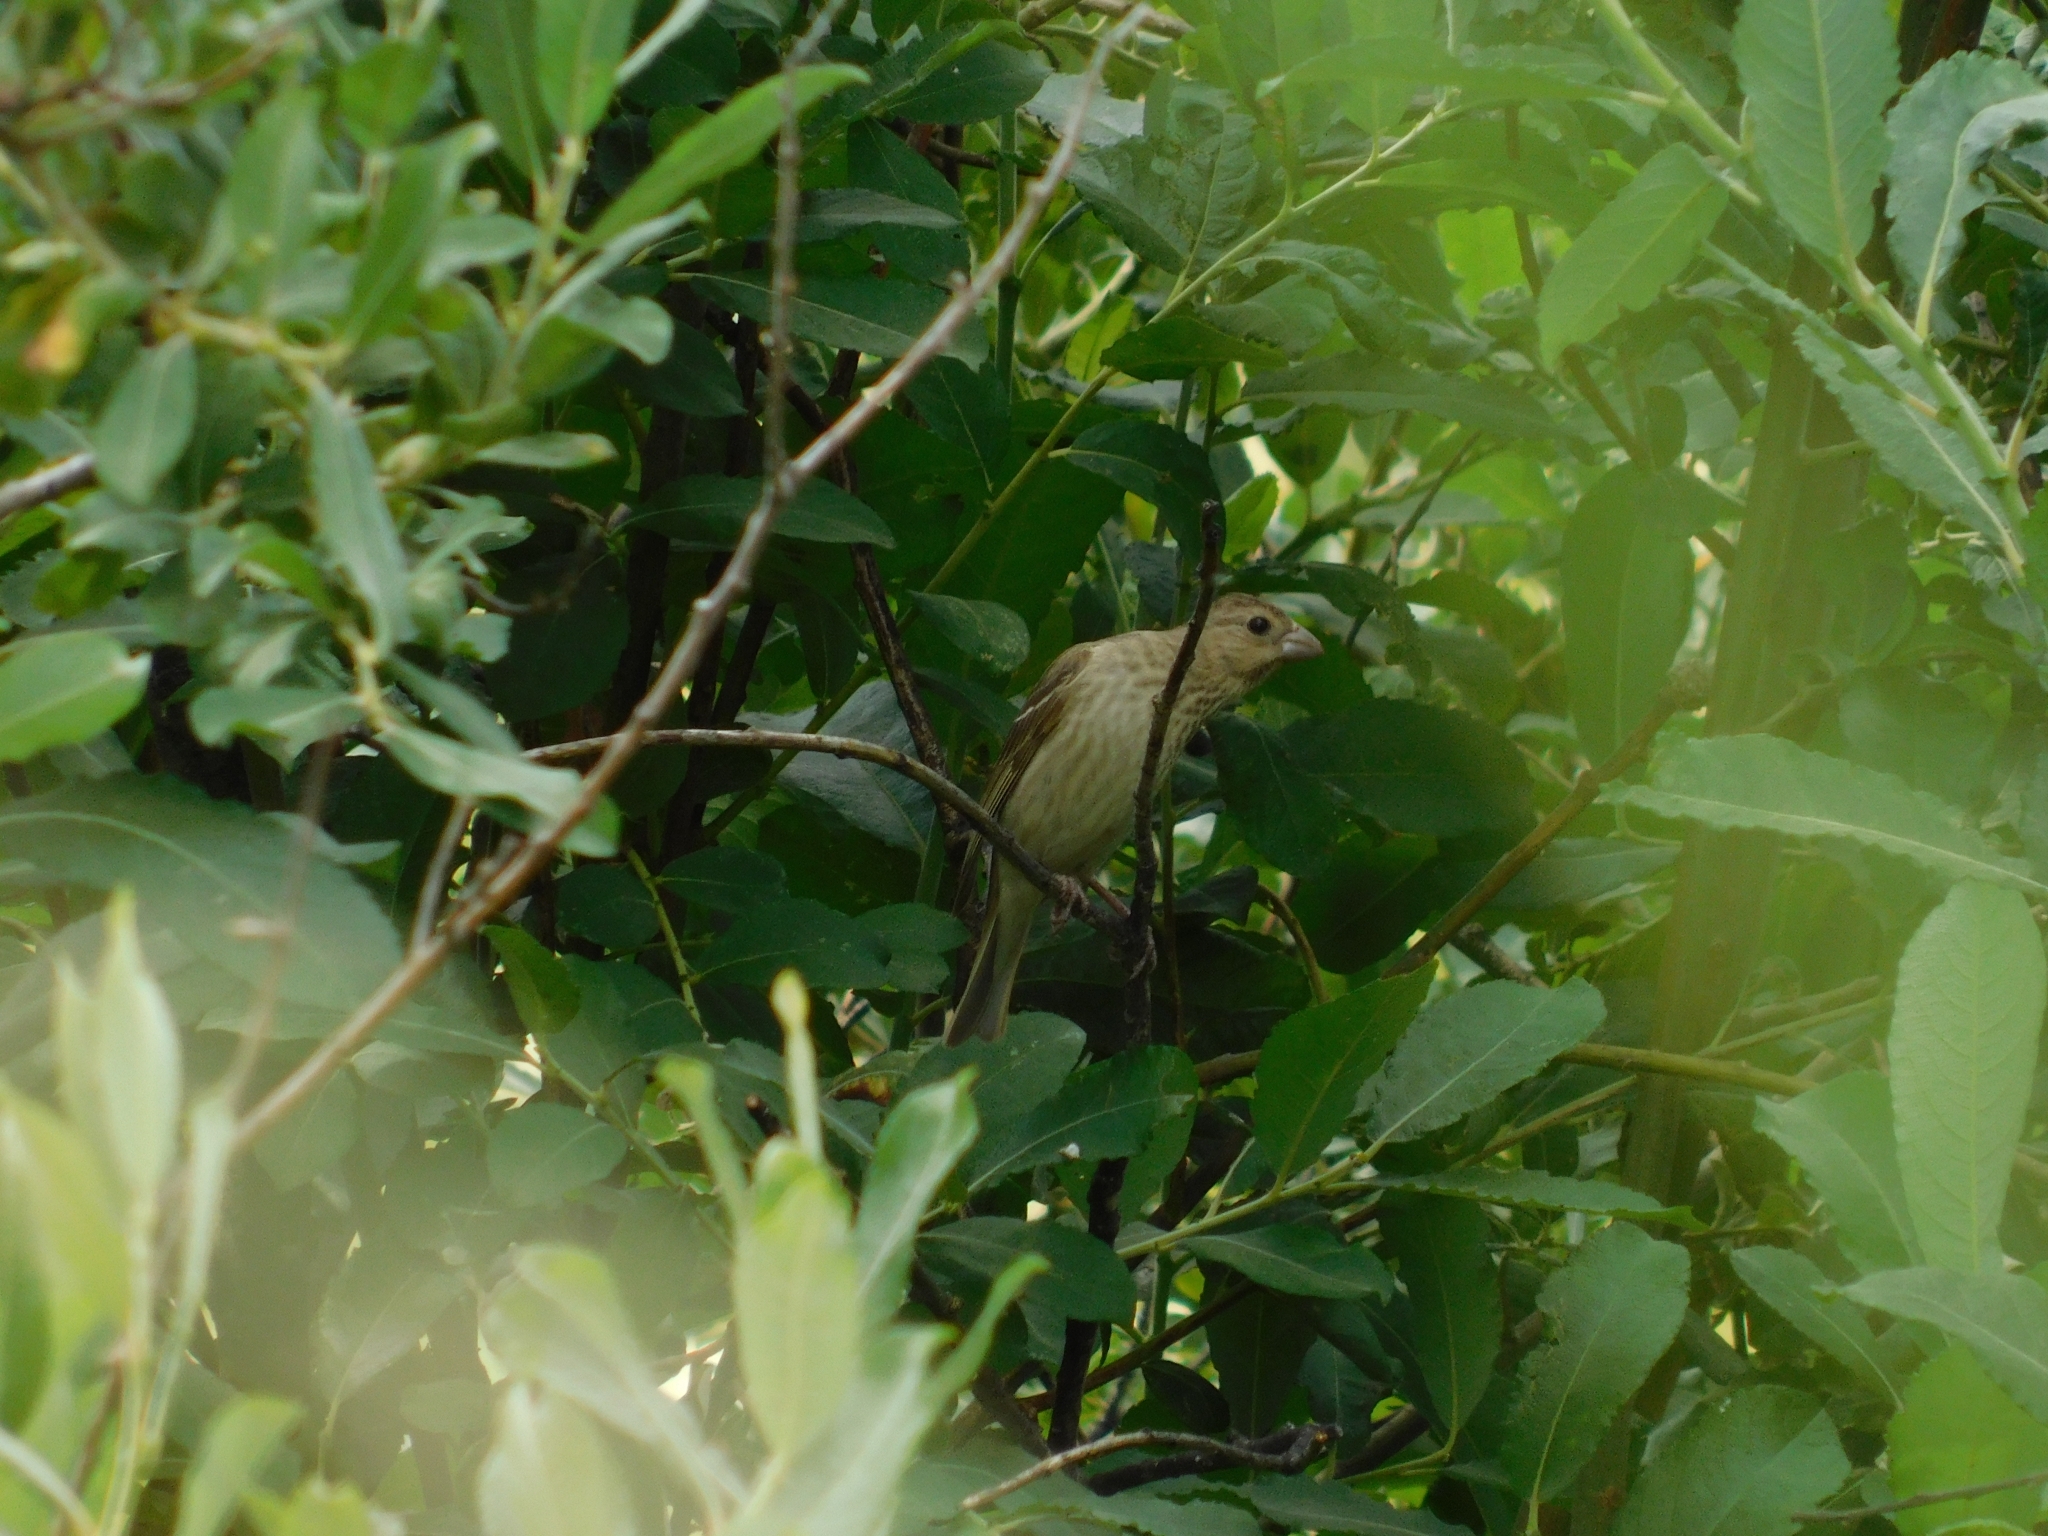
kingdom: Animalia
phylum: Chordata
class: Aves
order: Passeriformes
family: Fringillidae
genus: Carpodacus
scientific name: Carpodacus erythrinus
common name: Common rosefinch
